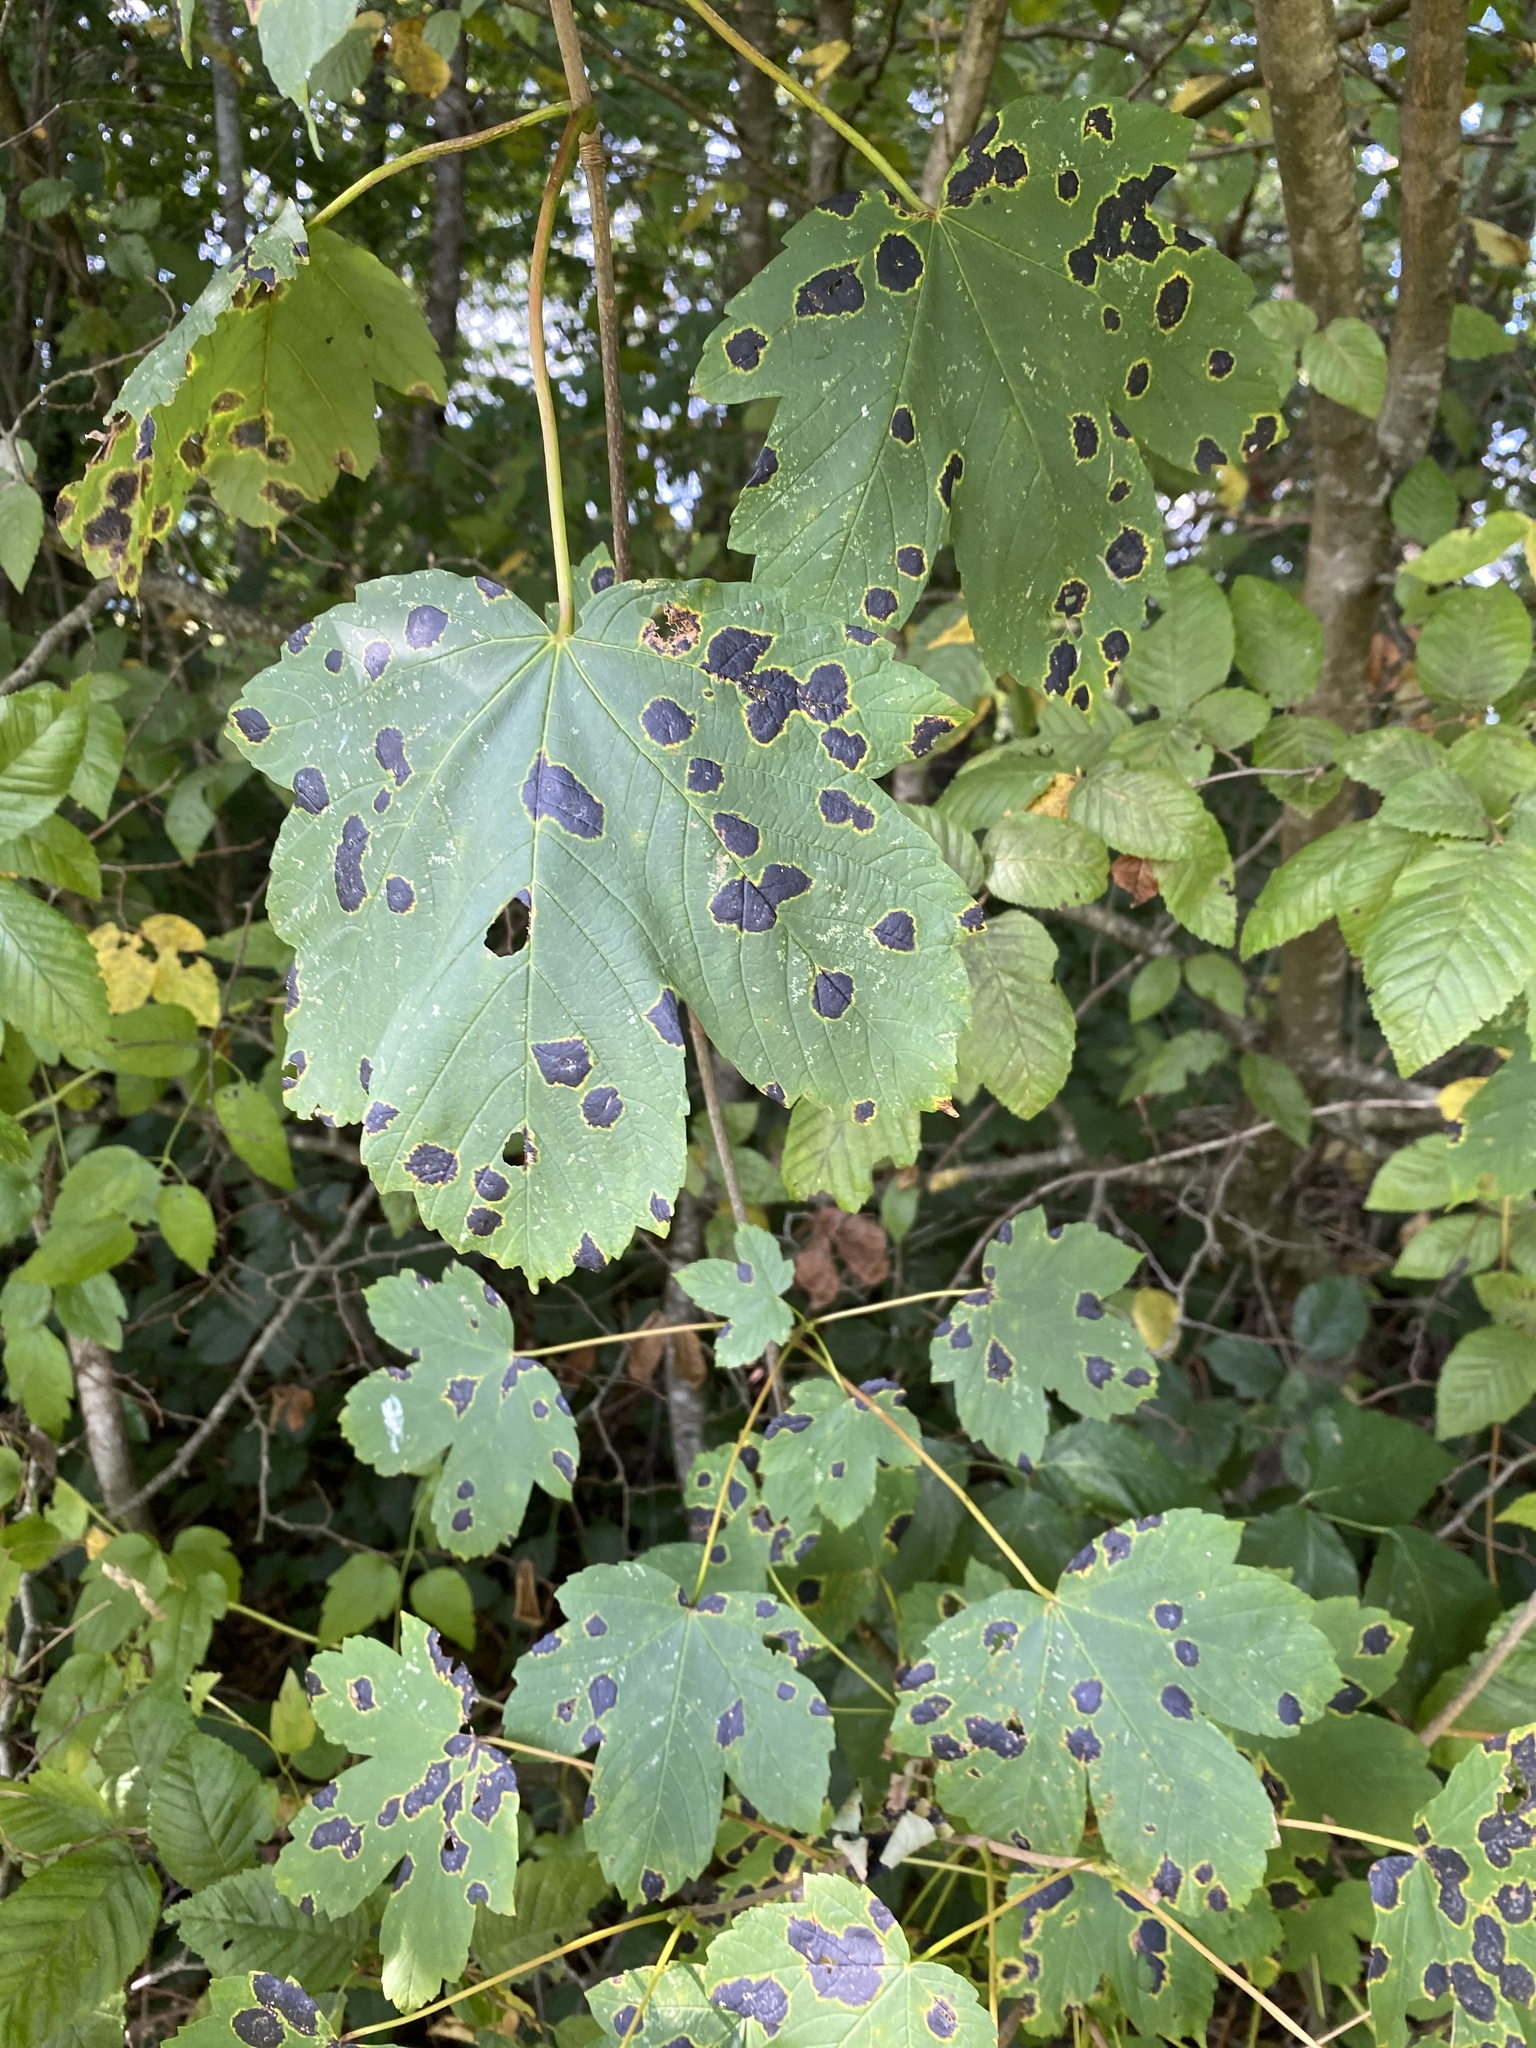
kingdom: Plantae
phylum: Tracheophyta
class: Magnoliopsida
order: Sapindales
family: Sapindaceae
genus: Acer
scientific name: Acer pseudoplatanus
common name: Sycamore
